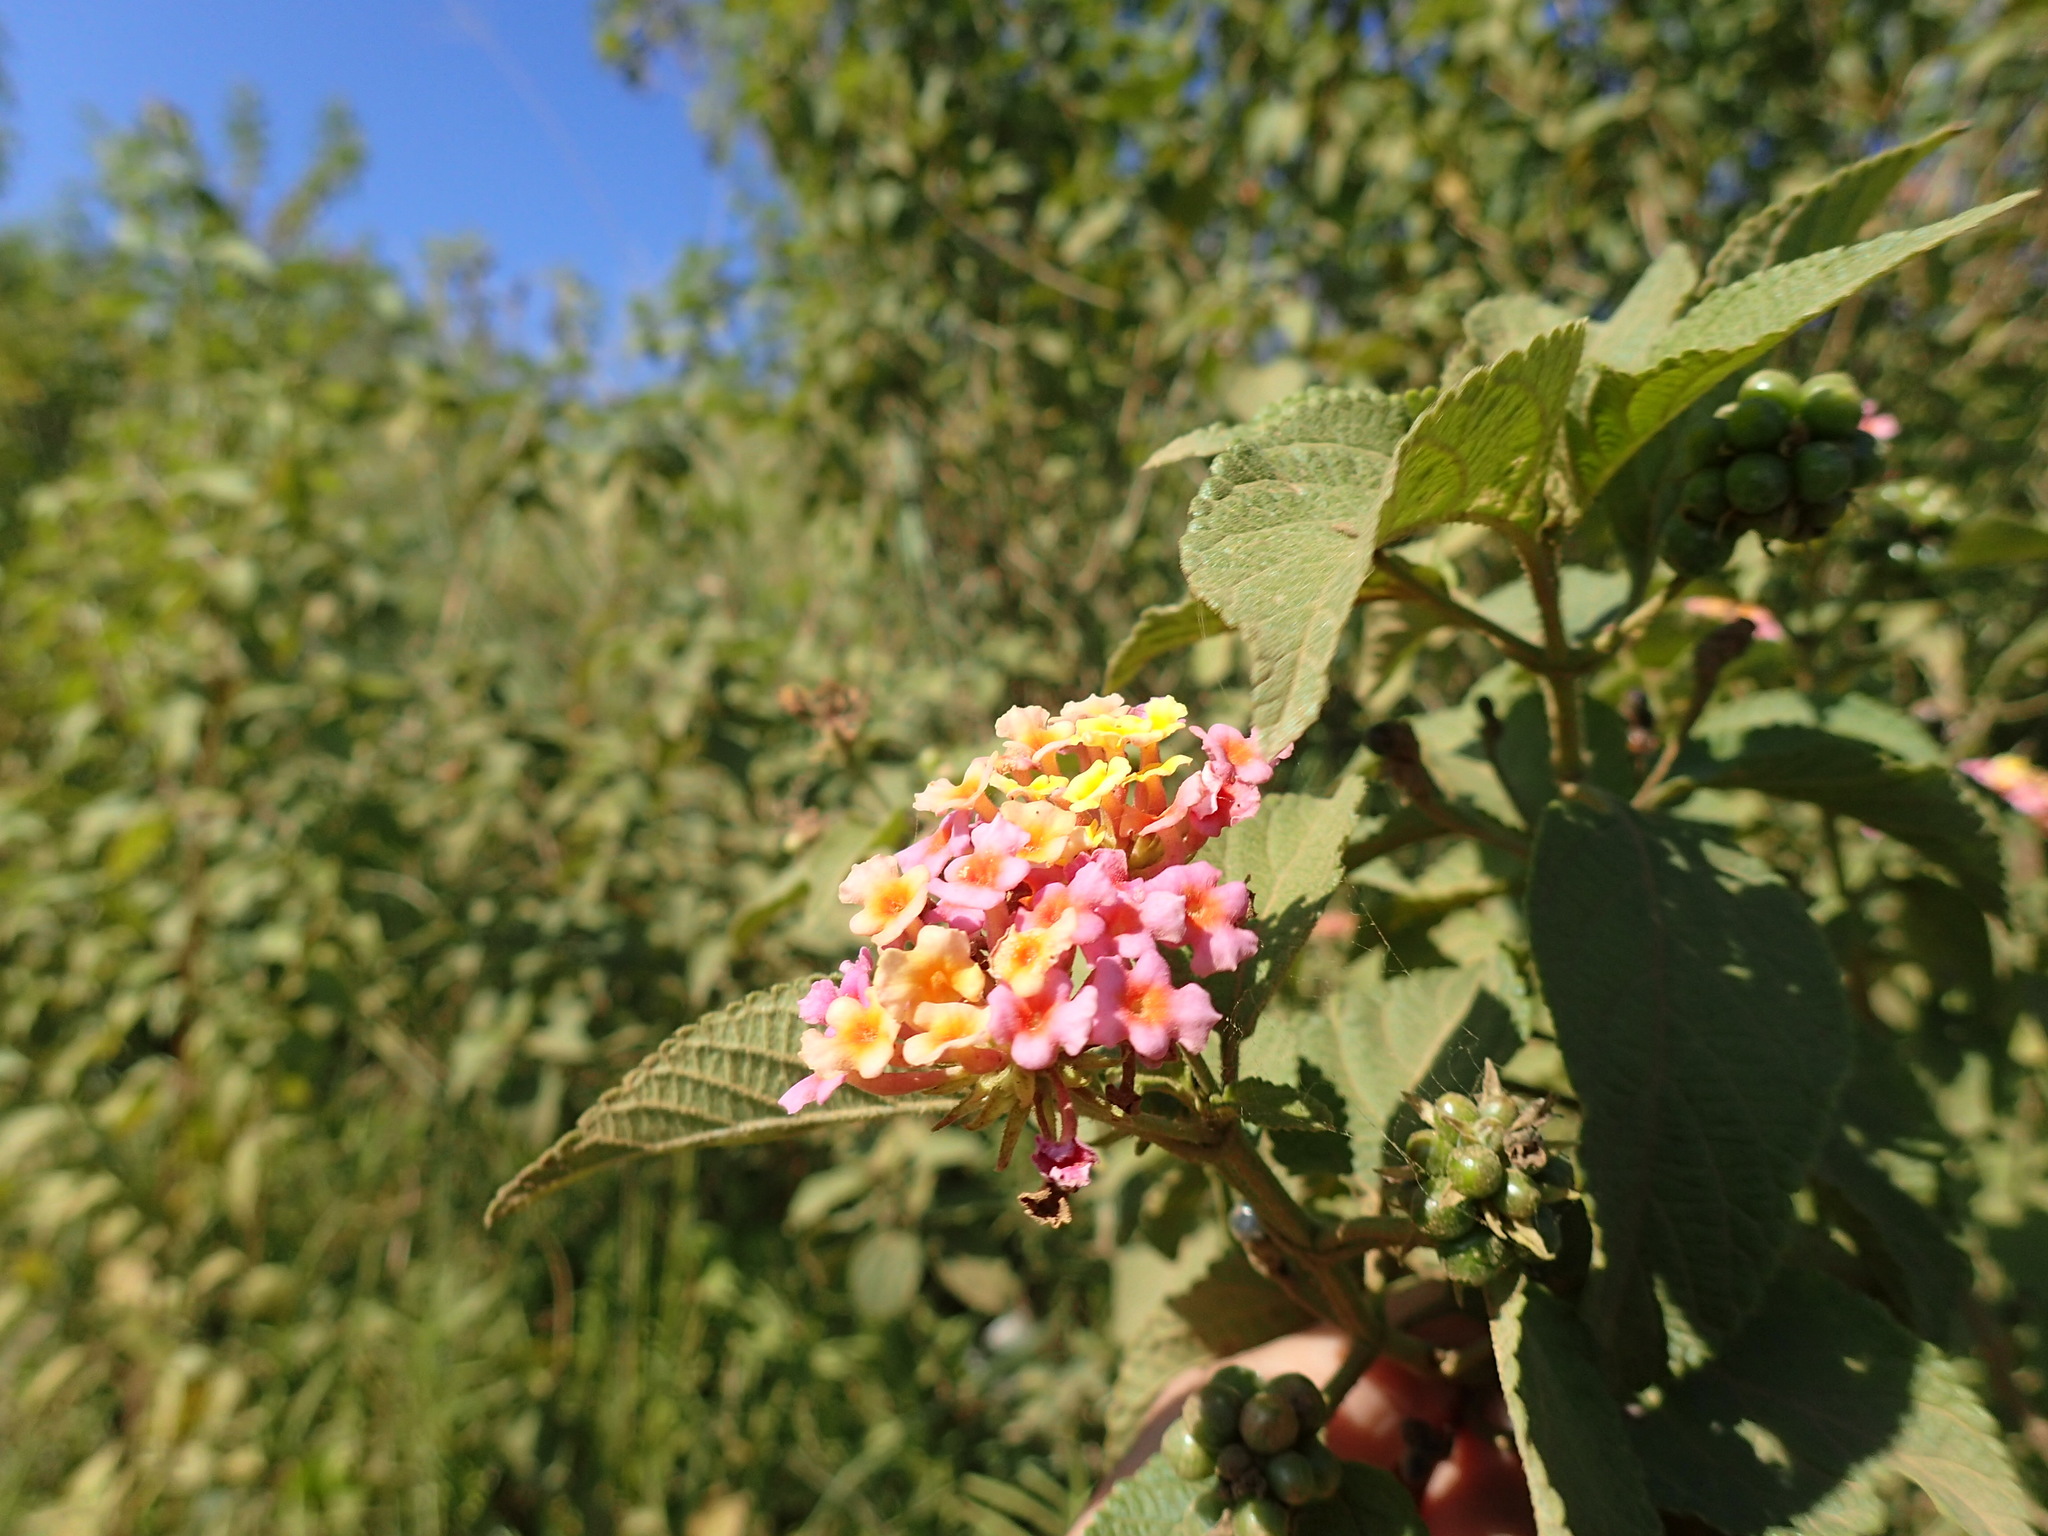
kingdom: Plantae
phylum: Tracheophyta
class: Magnoliopsida
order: Lamiales
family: Verbenaceae
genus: Lantana
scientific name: Lantana camara
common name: Lantana
